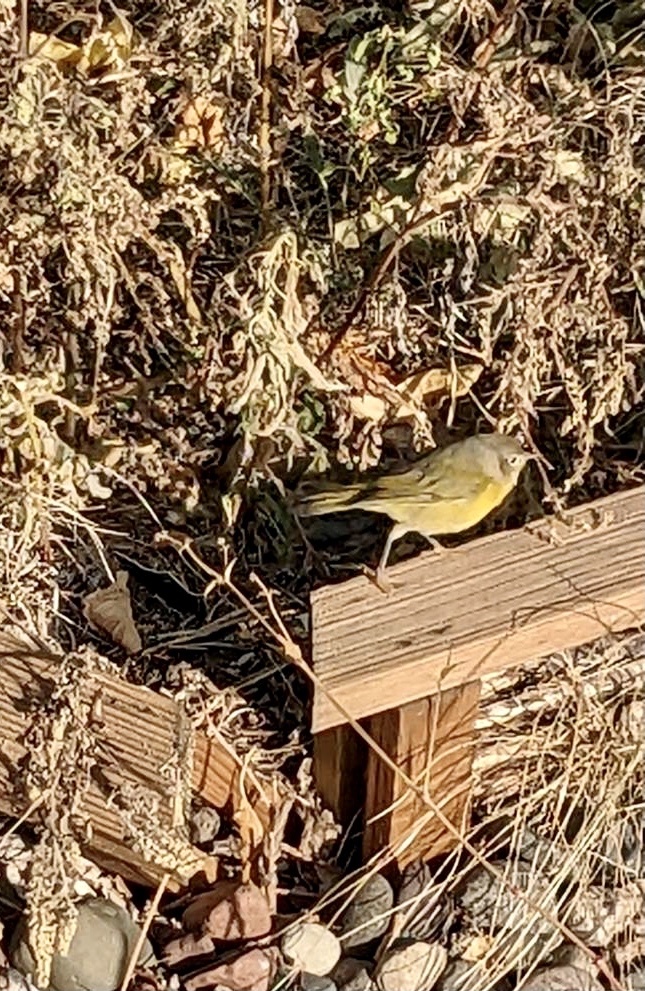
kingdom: Animalia
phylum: Chordata
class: Aves
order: Passeriformes
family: Parulidae
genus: Leiothlypis
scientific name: Leiothlypis ruficapilla
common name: Nashville warbler
